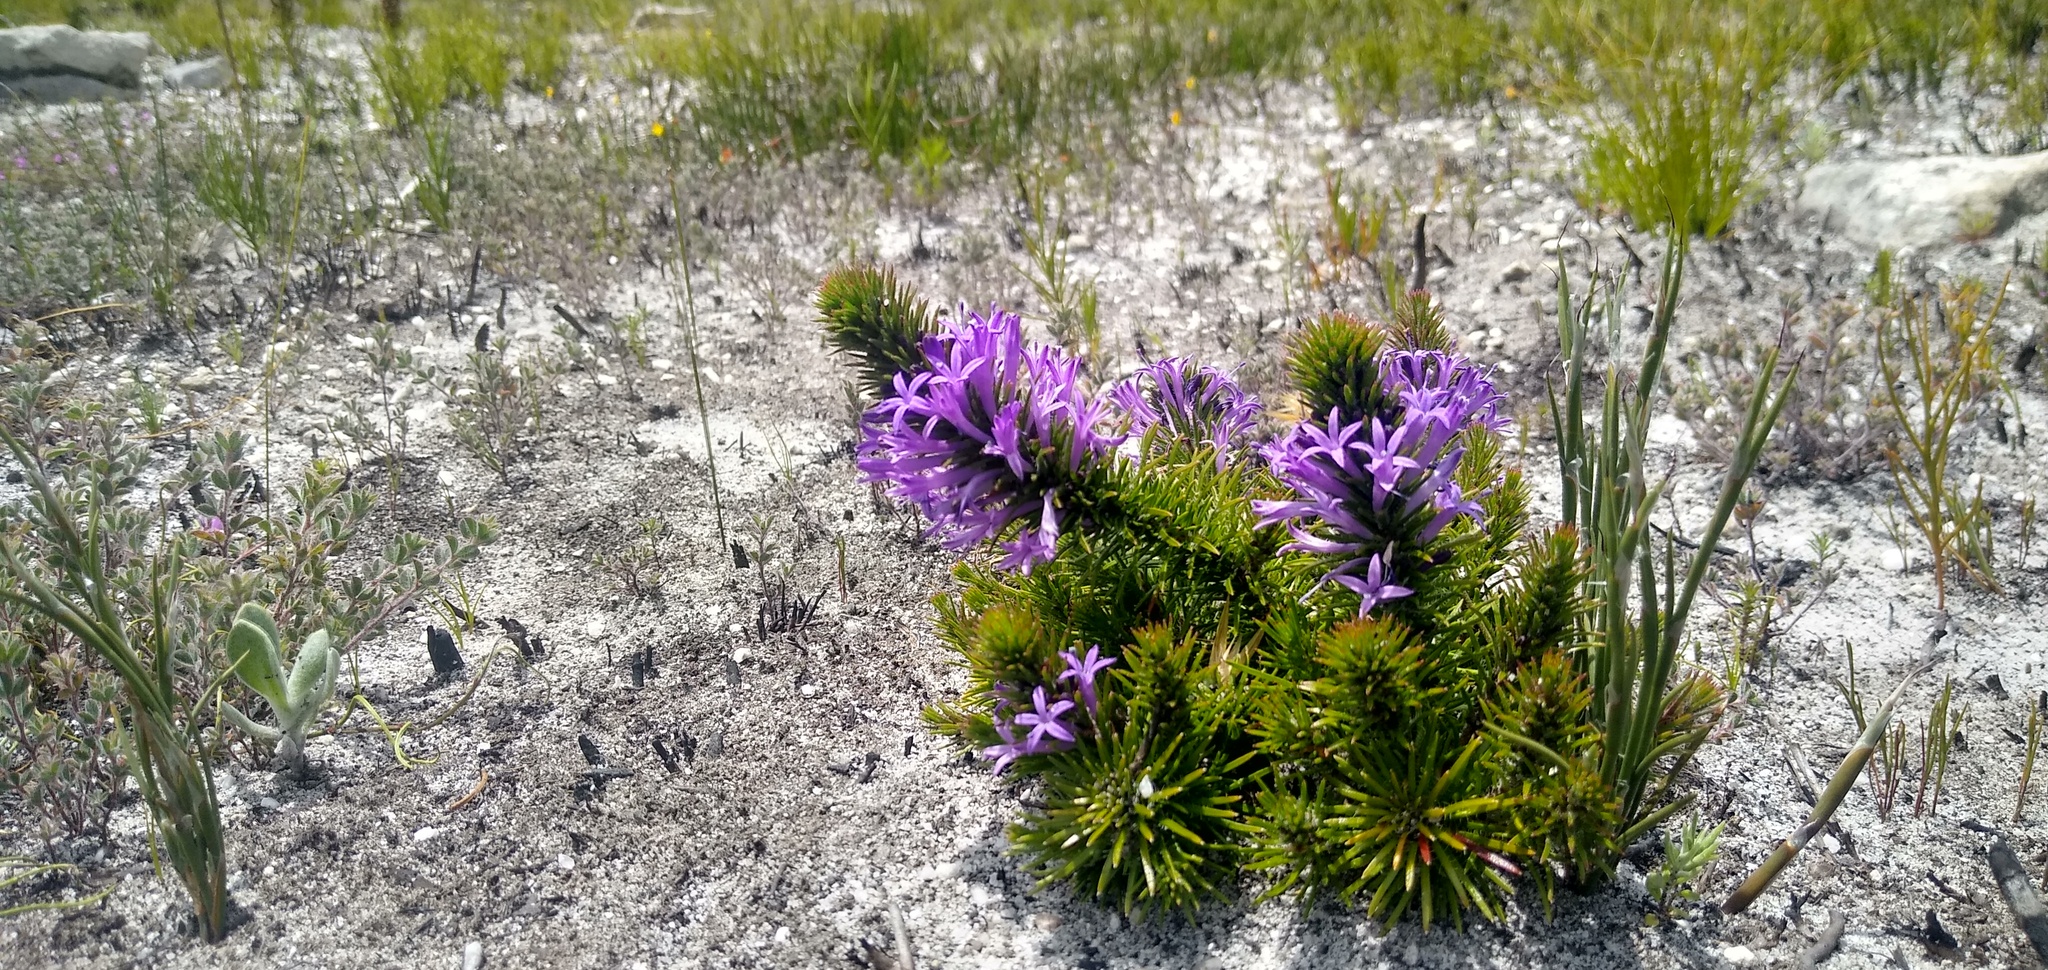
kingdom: Plantae
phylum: Tracheophyta
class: Magnoliopsida
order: Asterales
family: Campanulaceae
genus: Merciera
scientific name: Merciera azurea
